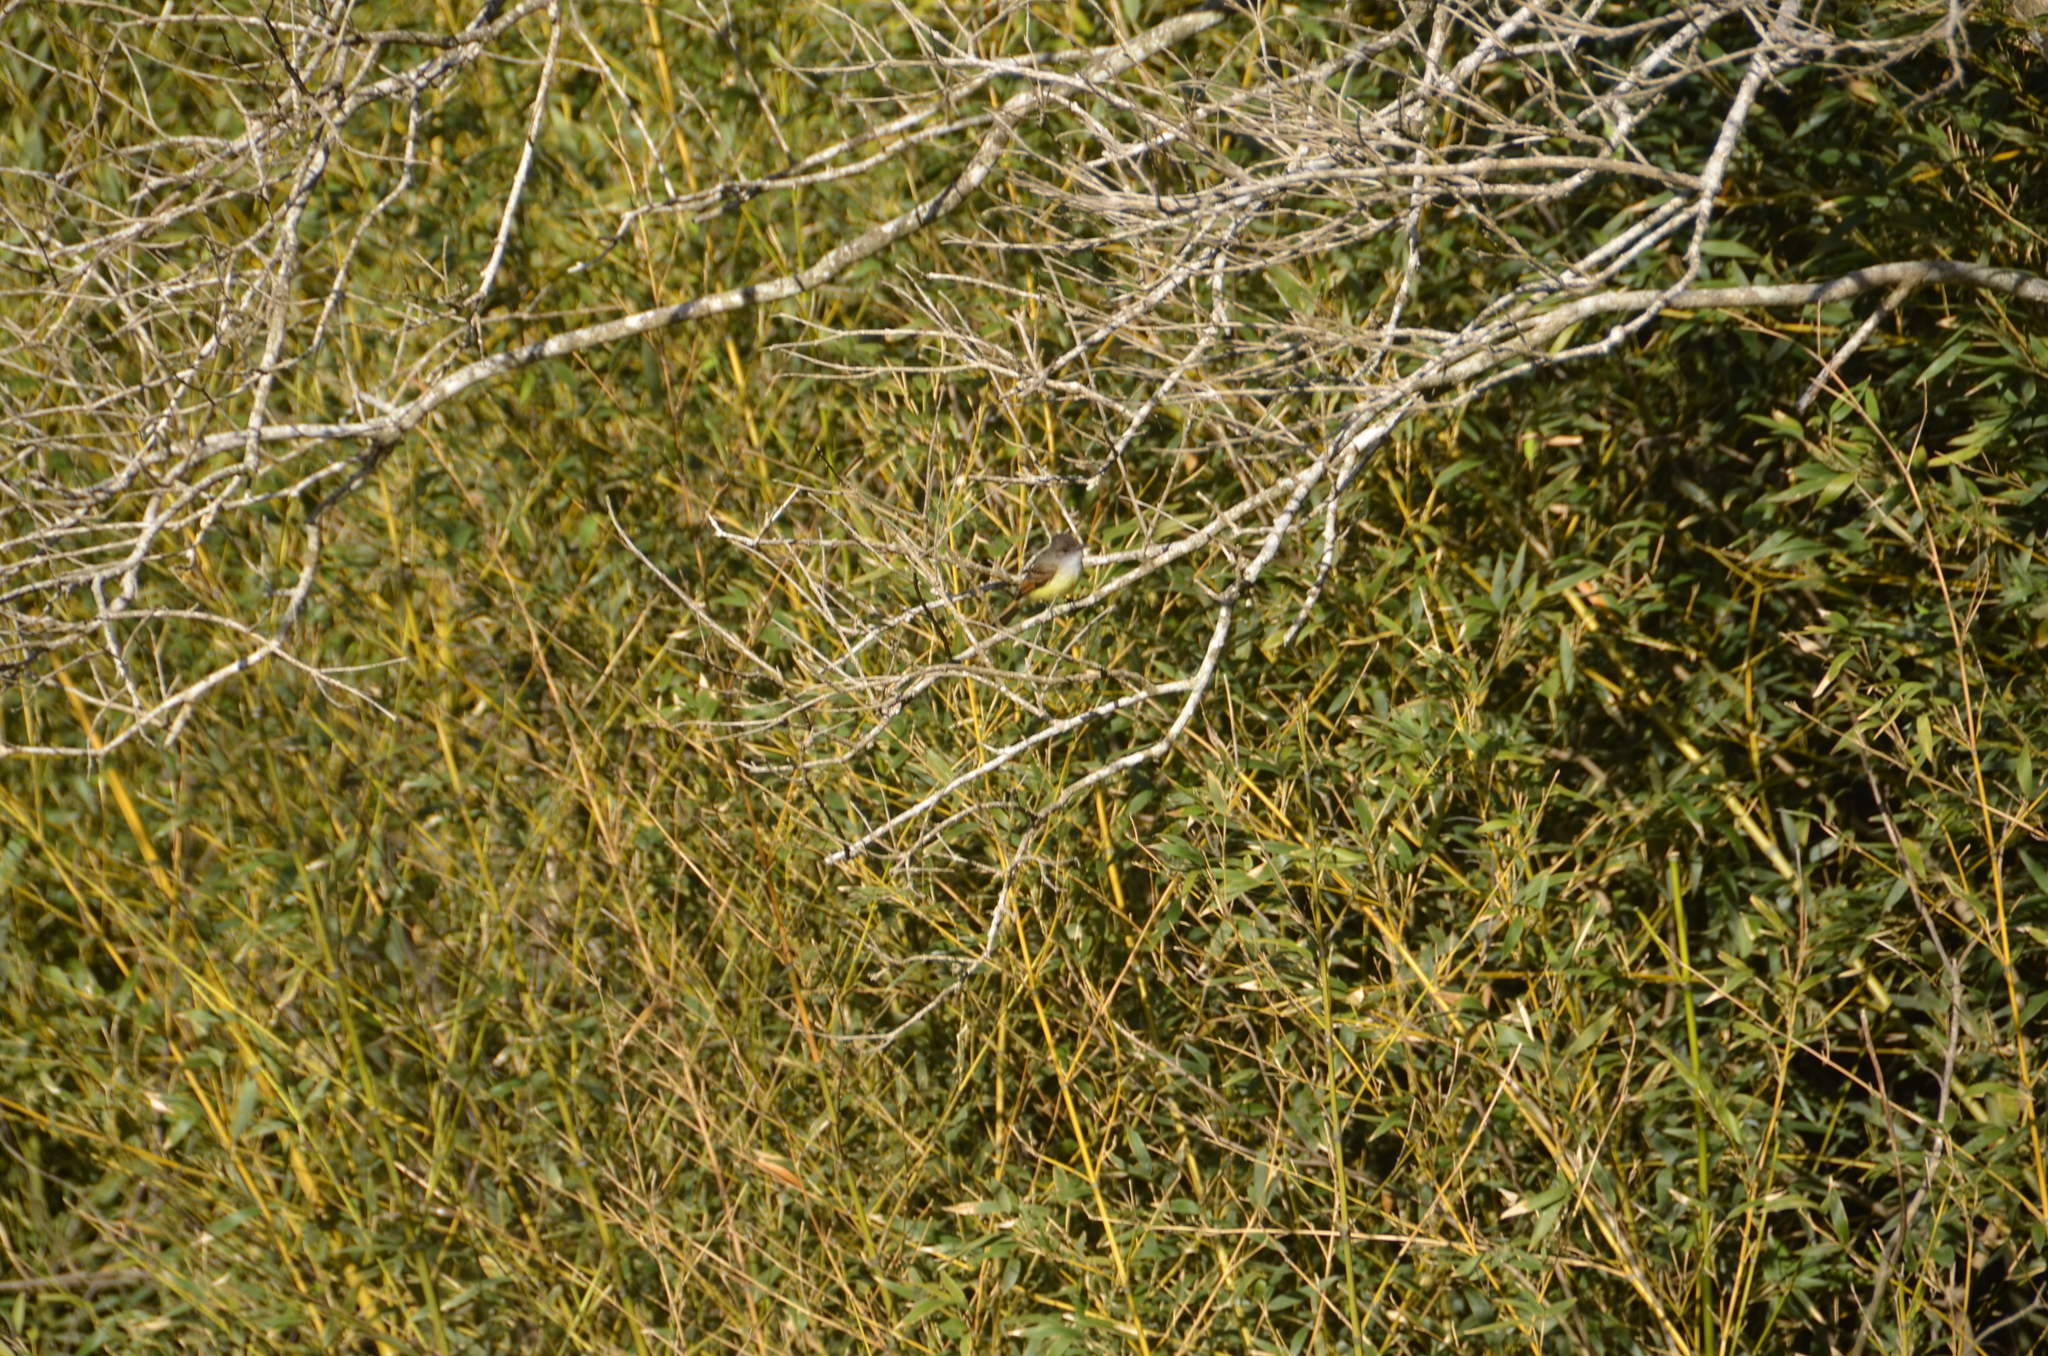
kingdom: Animalia
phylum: Chordata
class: Aves
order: Passeriformes
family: Tyrannidae
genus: Myiarchus
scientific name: Myiarchus tuberculifer
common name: Dusky-capped flycatcher
